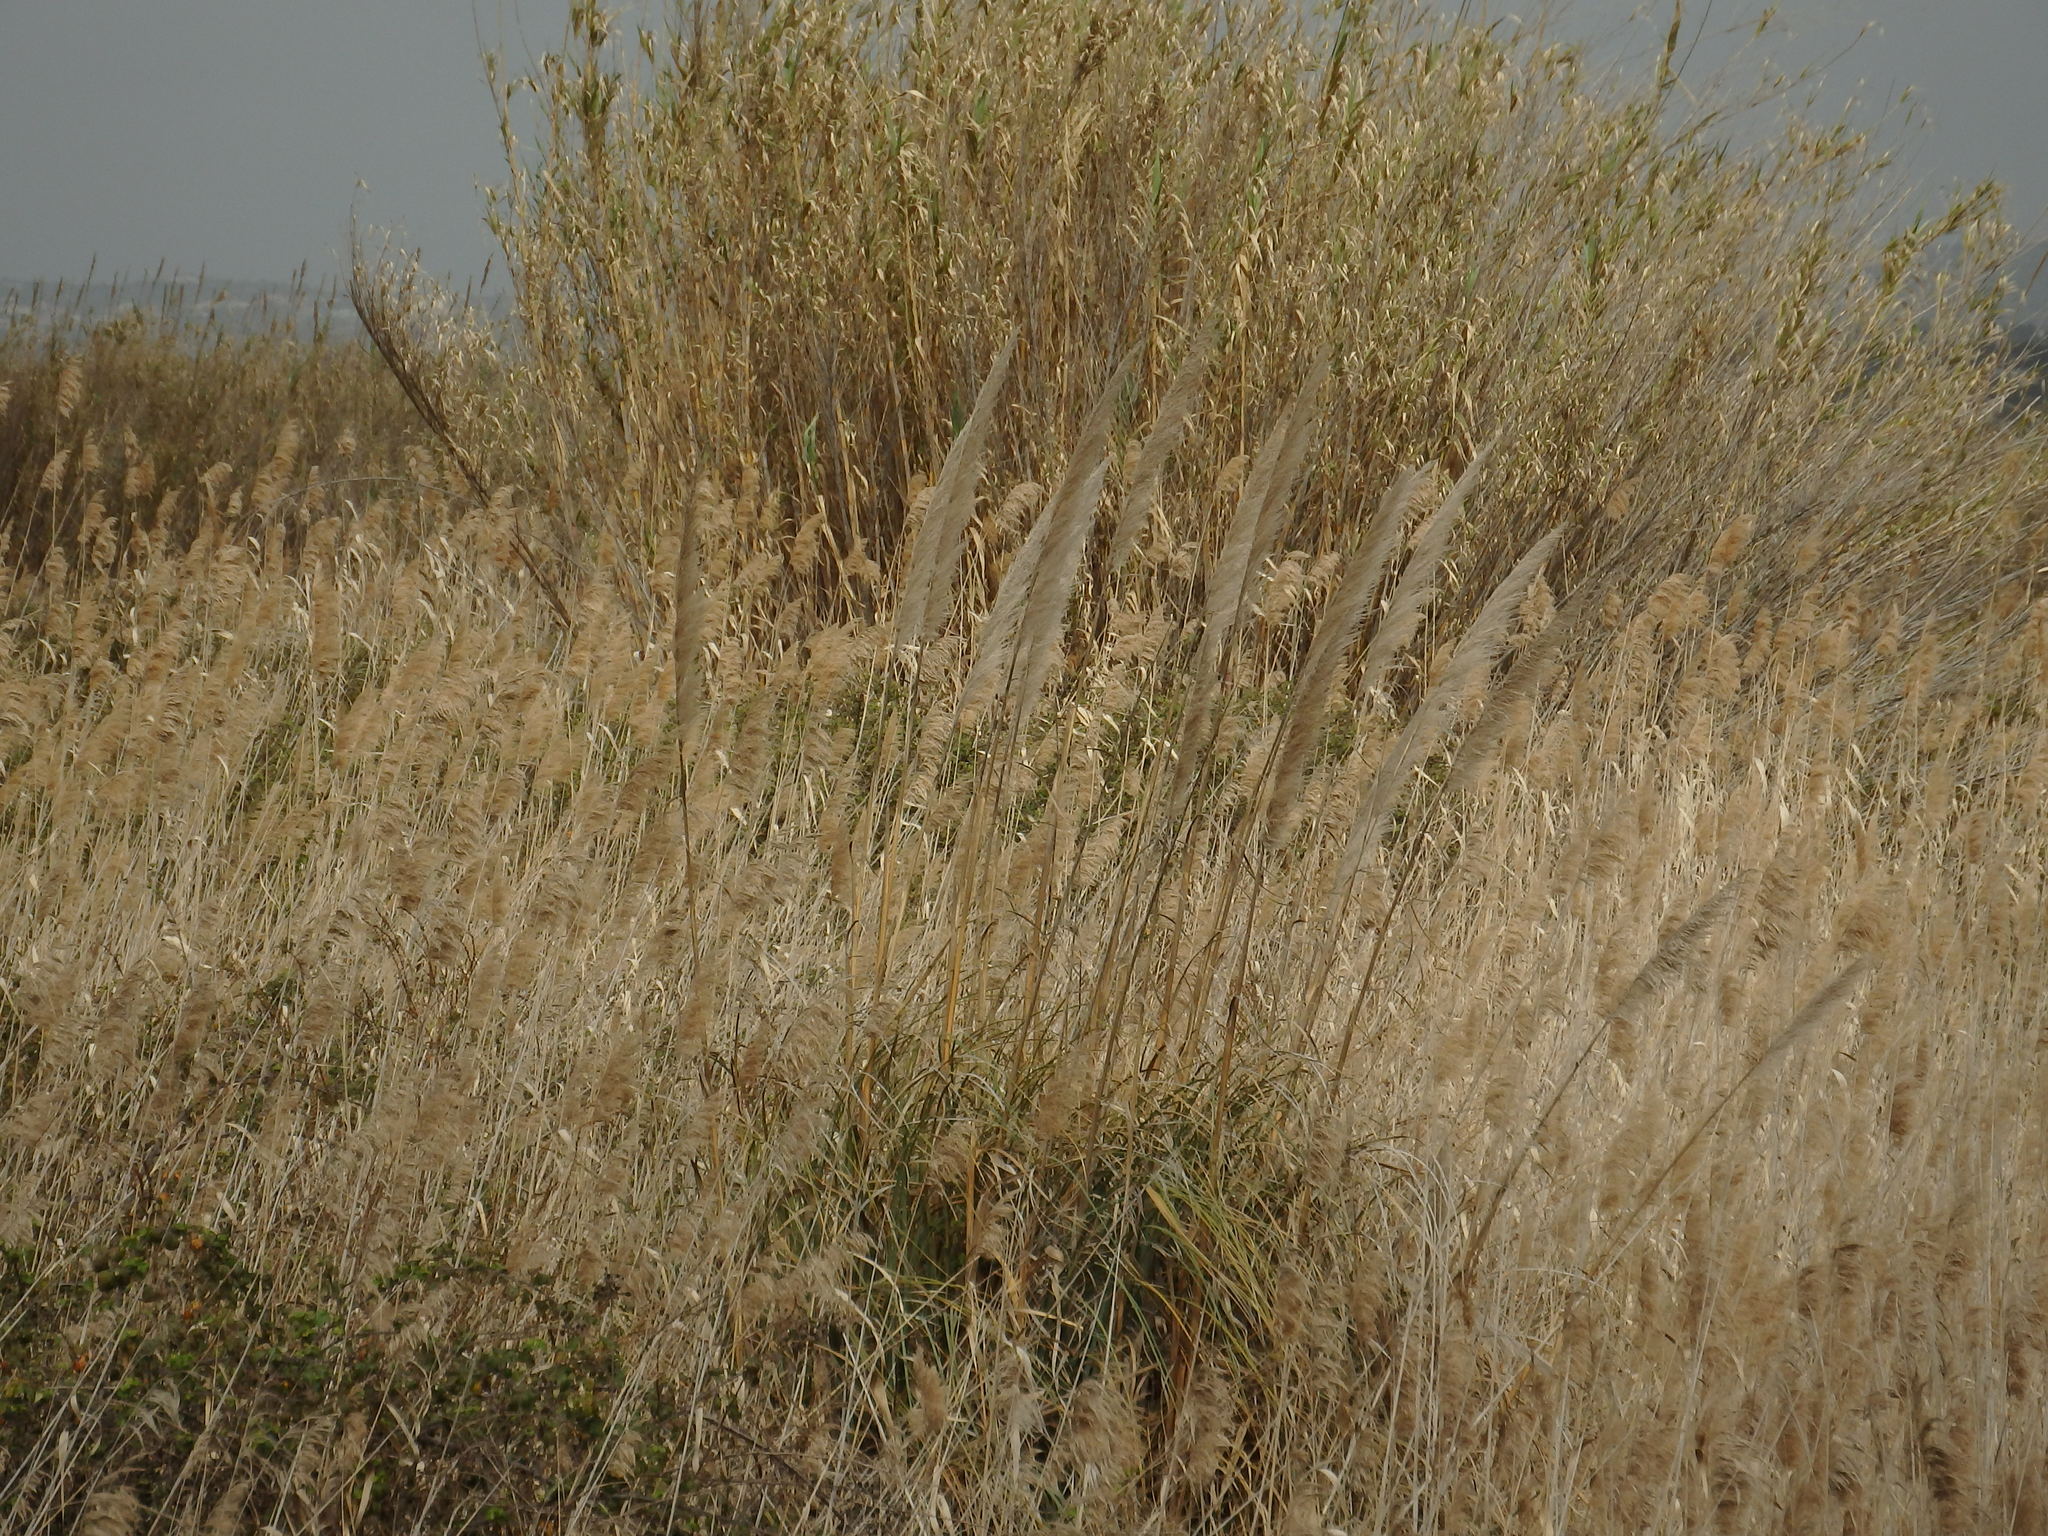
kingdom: Plantae
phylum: Tracheophyta
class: Liliopsida
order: Poales
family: Poaceae
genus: Cortaderia
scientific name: Cortaderia selloana
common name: Uruguayan pampas grass
